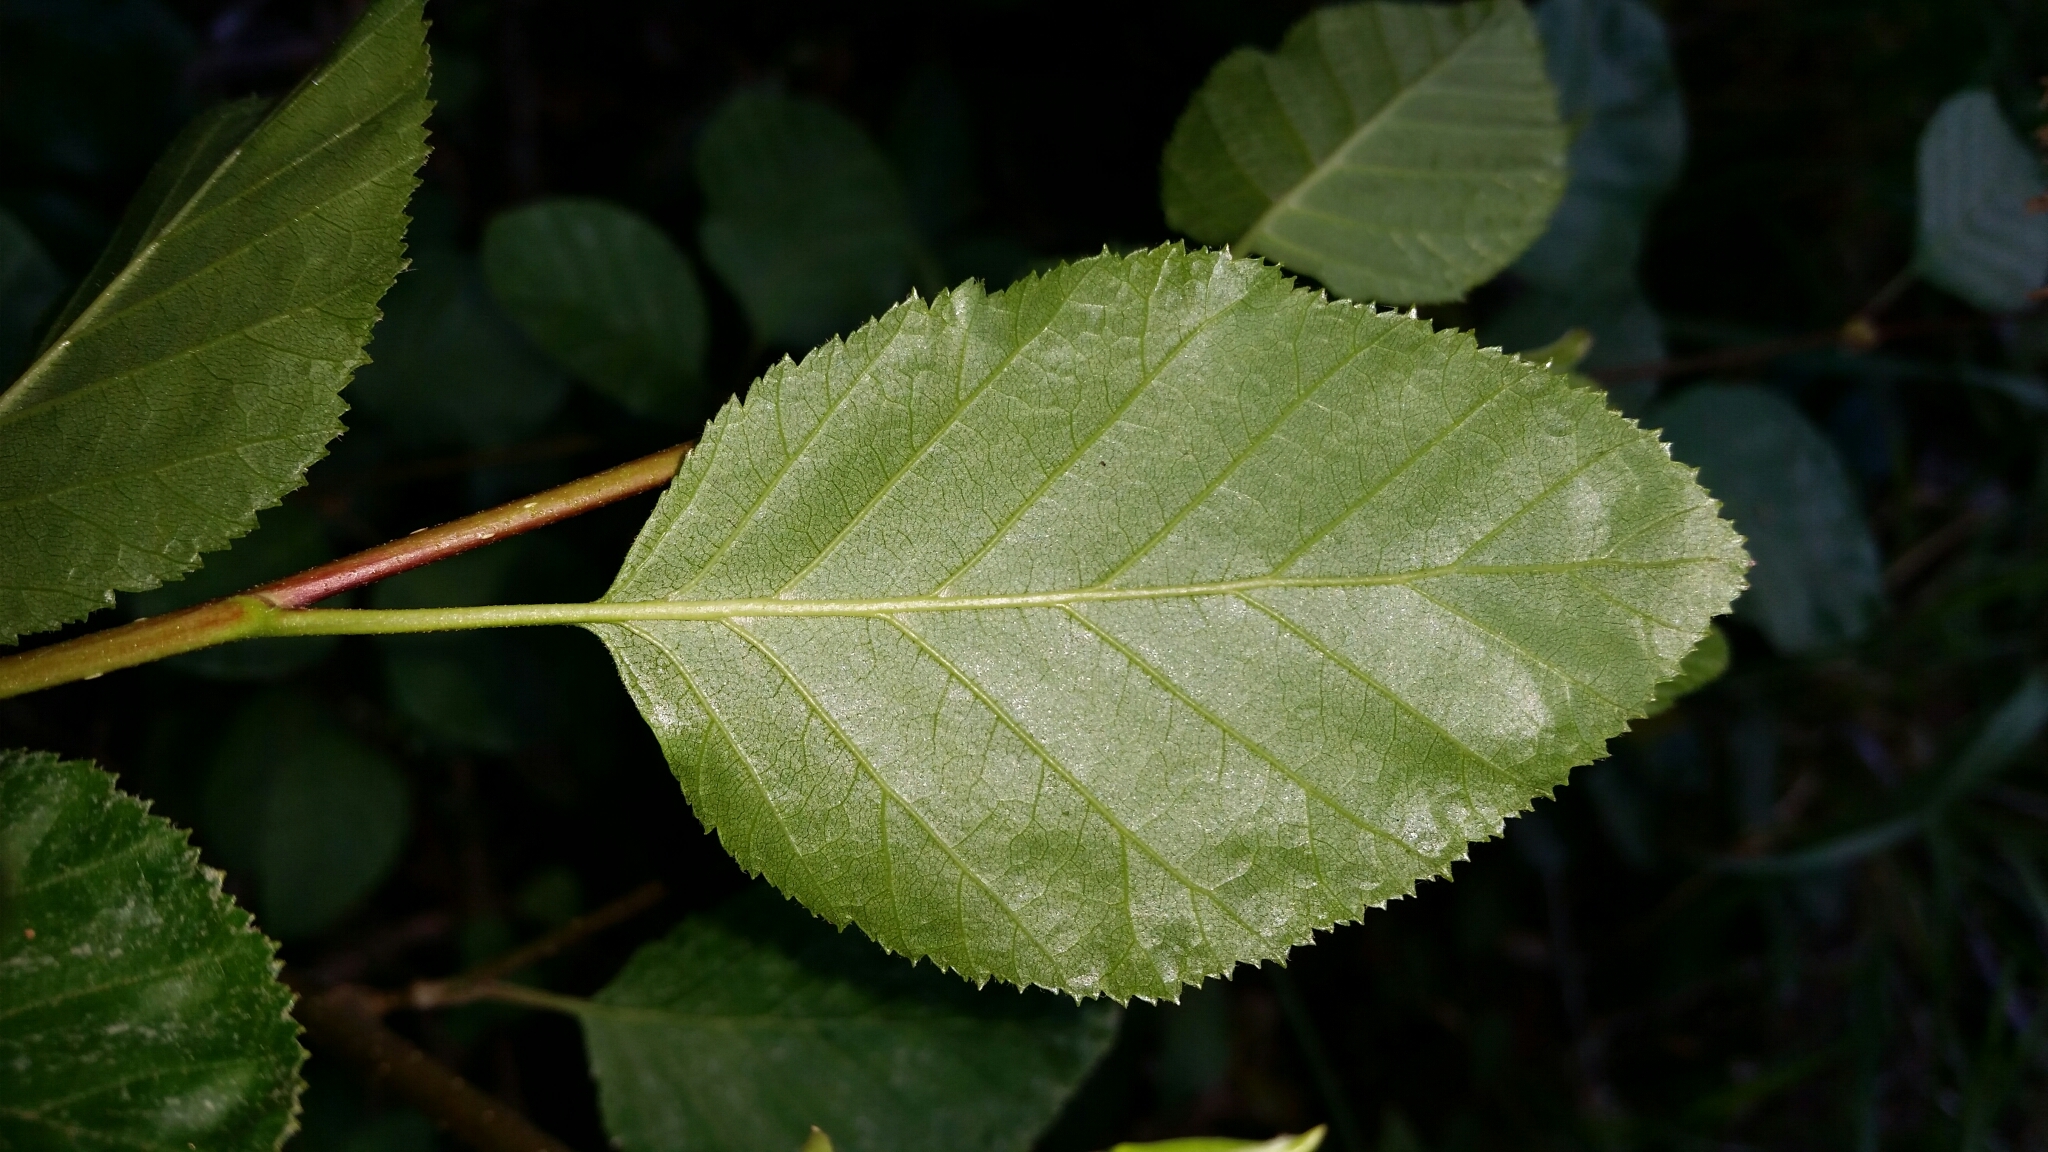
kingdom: Plantae
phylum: Tracheophyta
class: Magnoliopsida
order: Fagales
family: Betulaceae
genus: Alnus
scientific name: Alnus alnobetula
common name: Green alder
